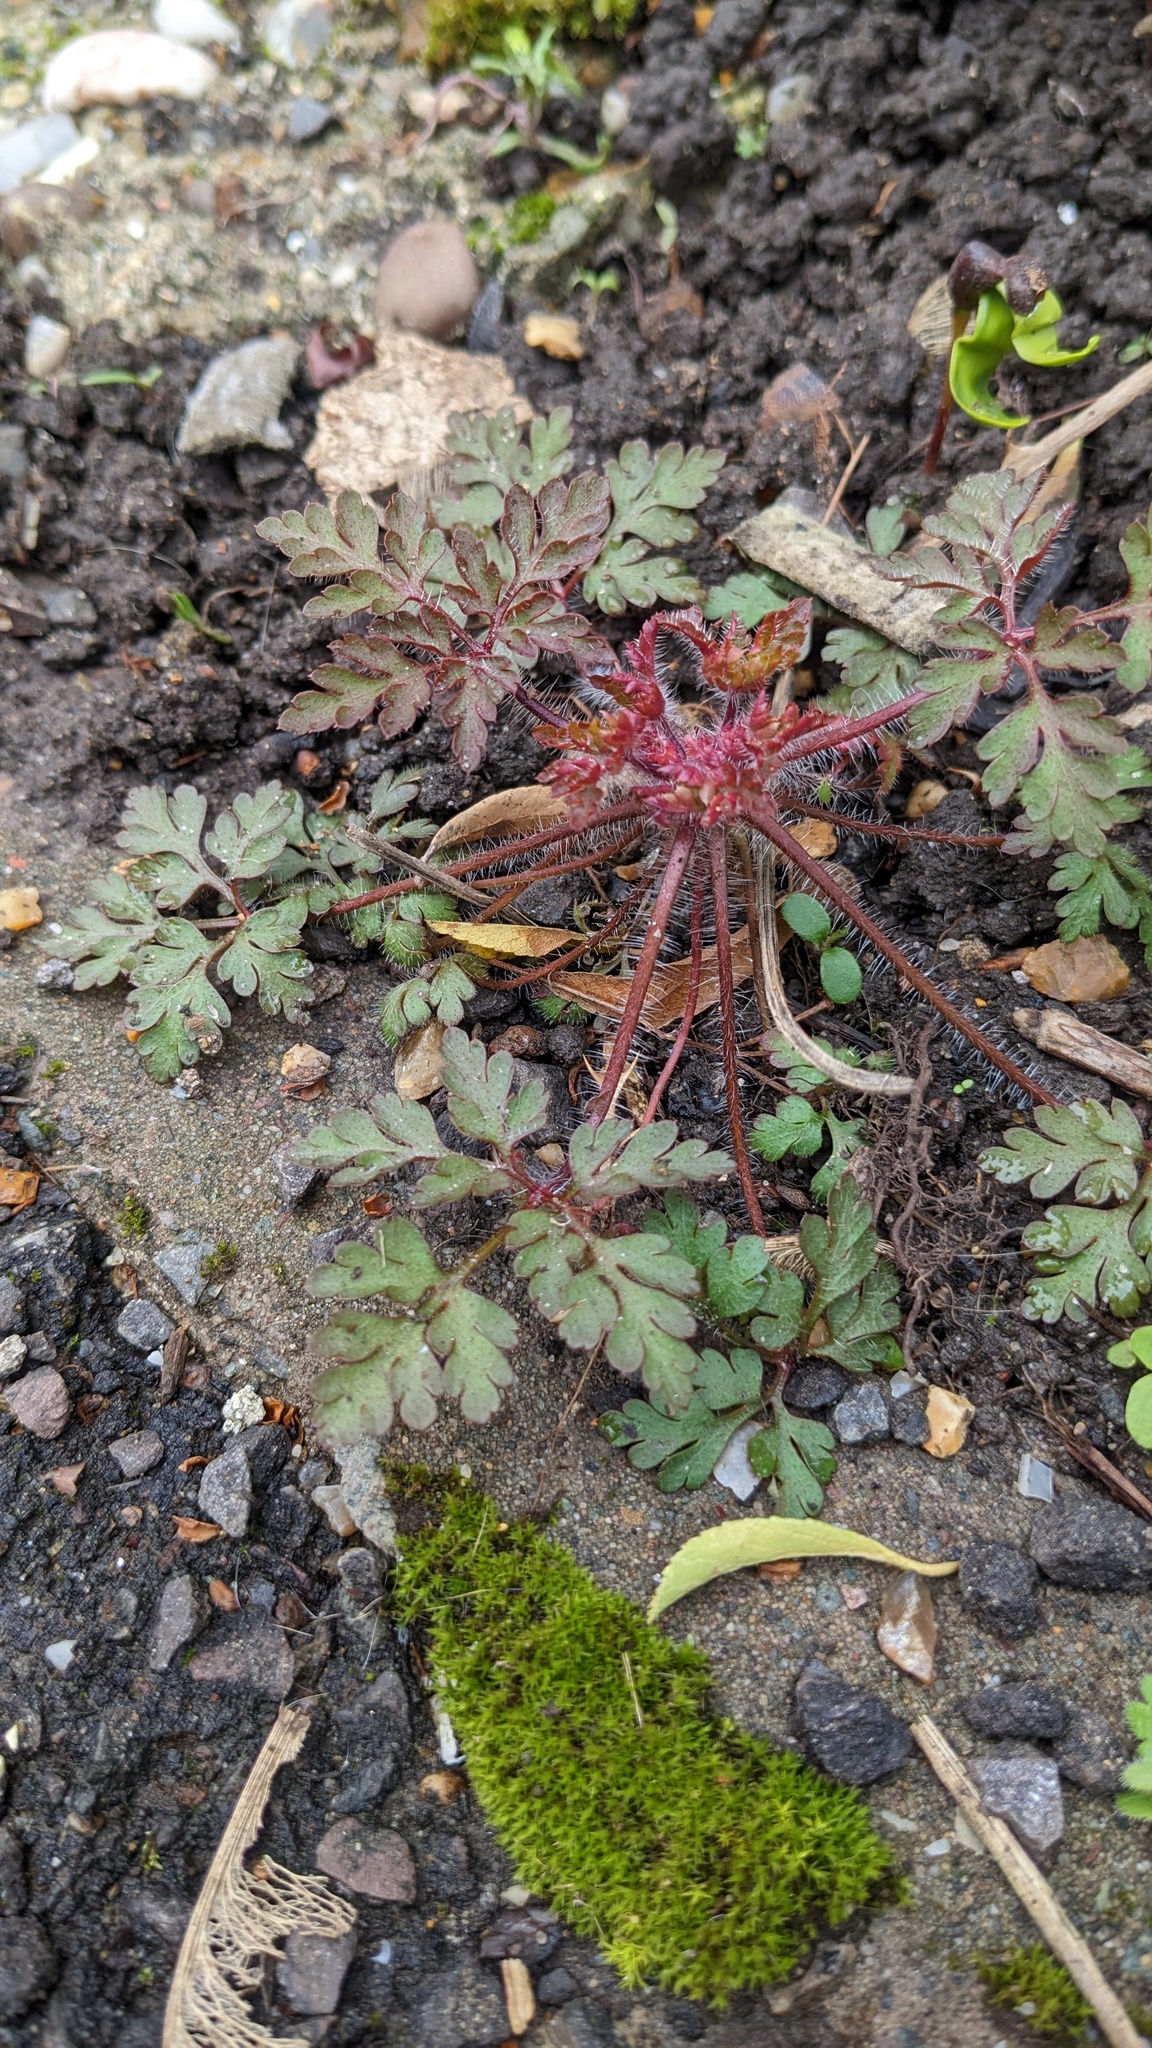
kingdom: Plantae
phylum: Tracheophyta
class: Magnoliopsida
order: Geraniales
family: Geraniaceae
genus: Geranium
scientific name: Geranium robertianum
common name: Herb-robert
